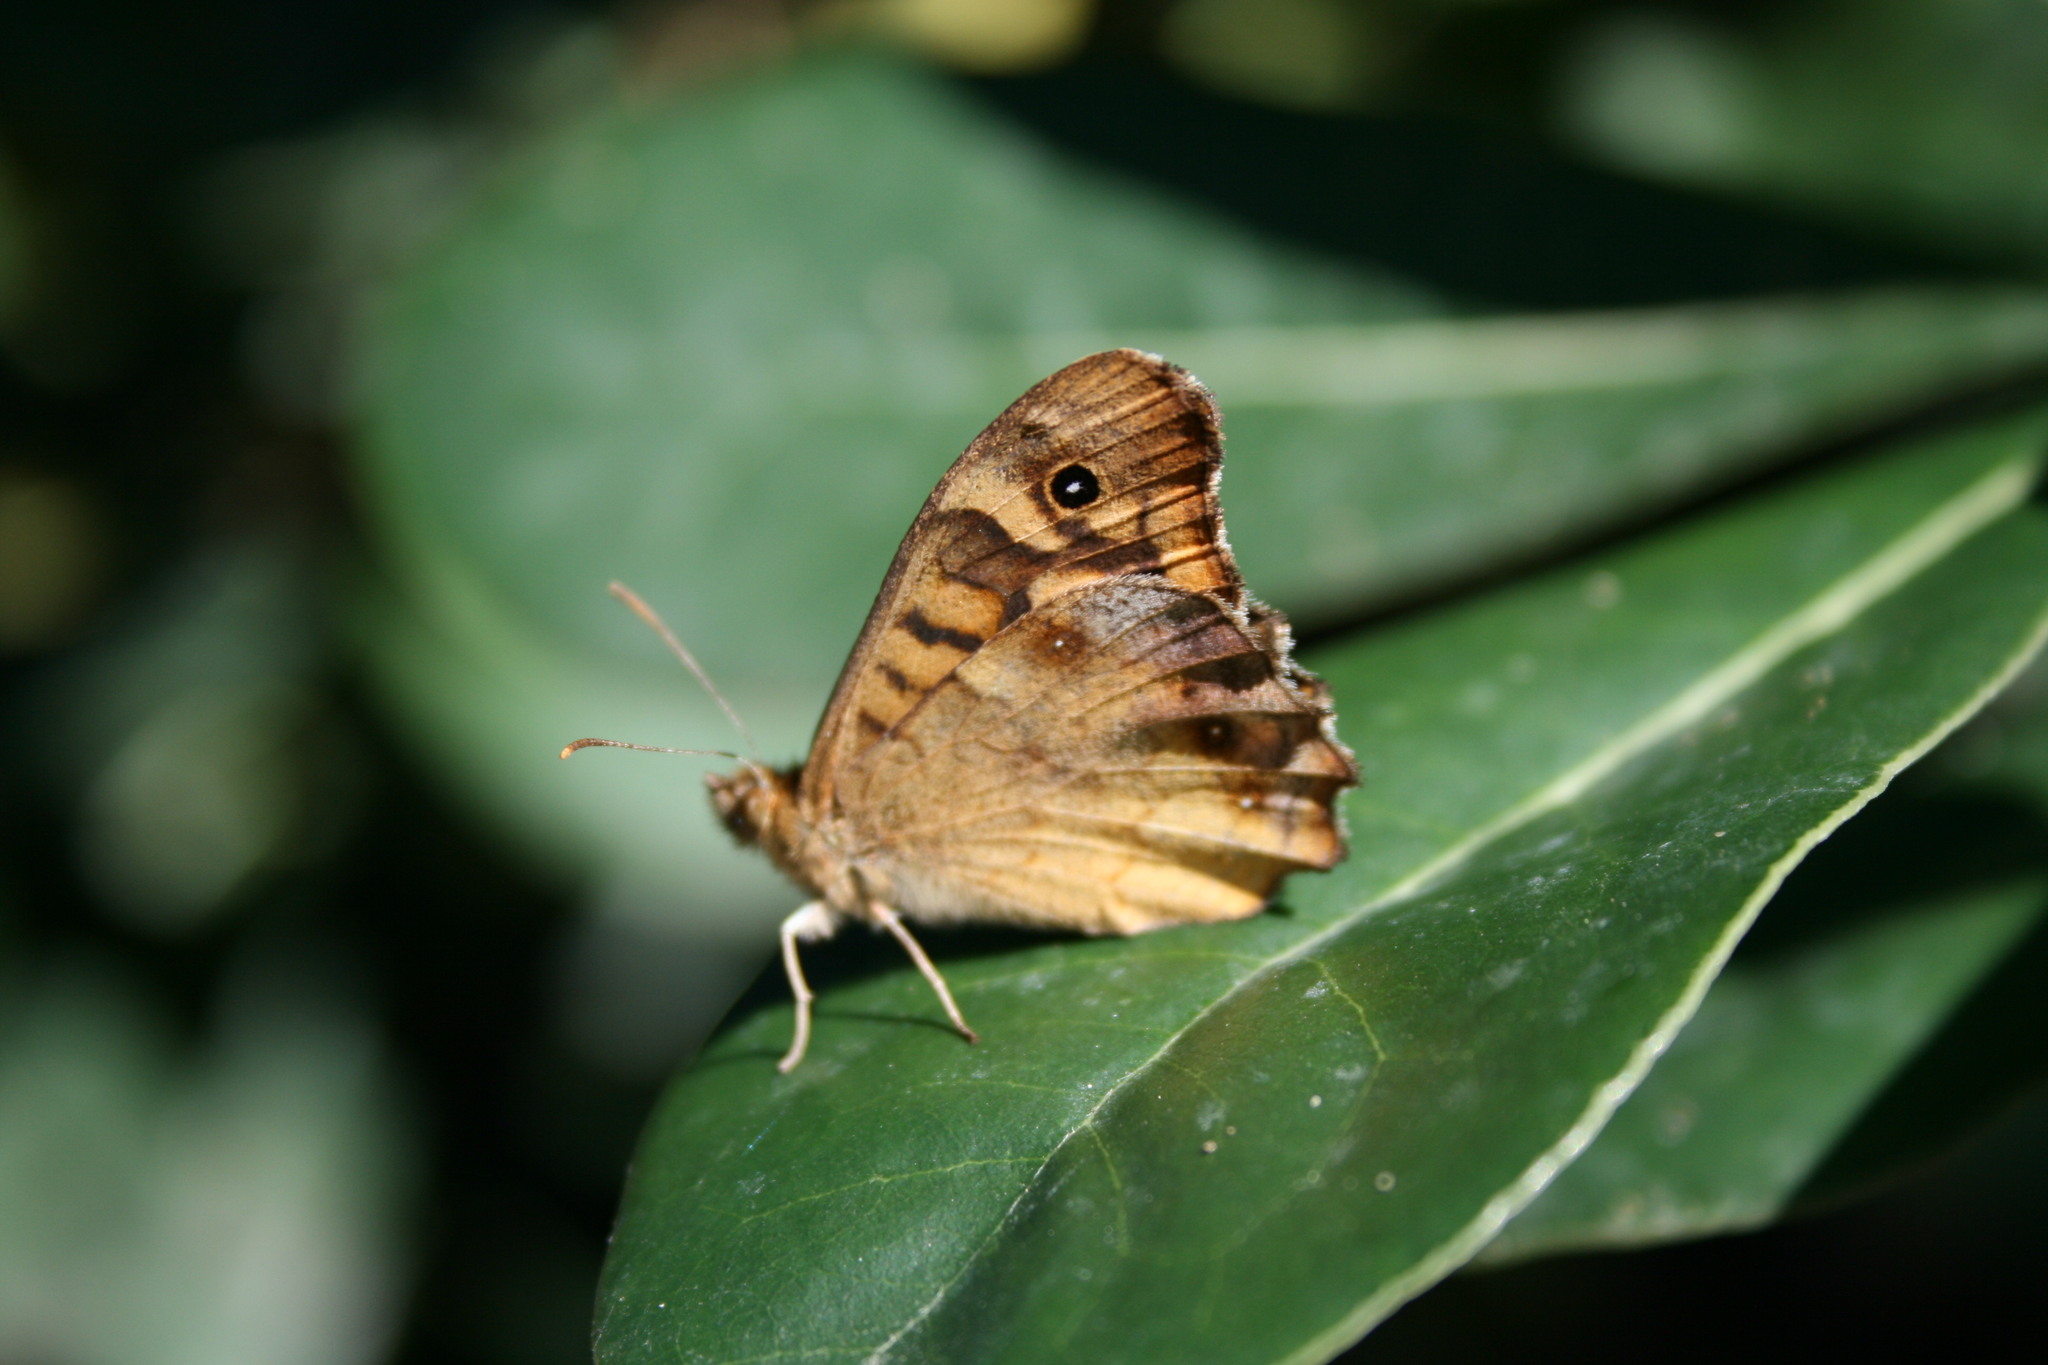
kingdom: Animalia
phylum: Arthropoda
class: Insecta
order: Lepidoptera
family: Nymphalidae
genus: Pararge
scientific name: Pararge aegeria
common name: Speckled wood
